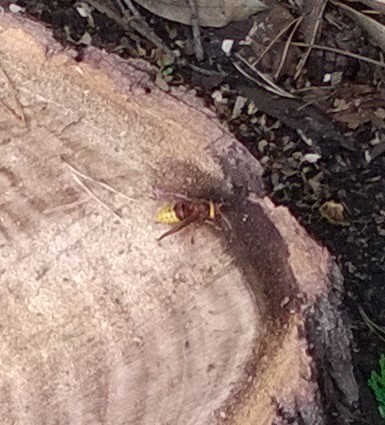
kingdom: Animalia
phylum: Arthropoda
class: Insecta
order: Hymenoptera
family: Vespidae
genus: Vespa
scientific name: Vespa crabro
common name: Hornet
